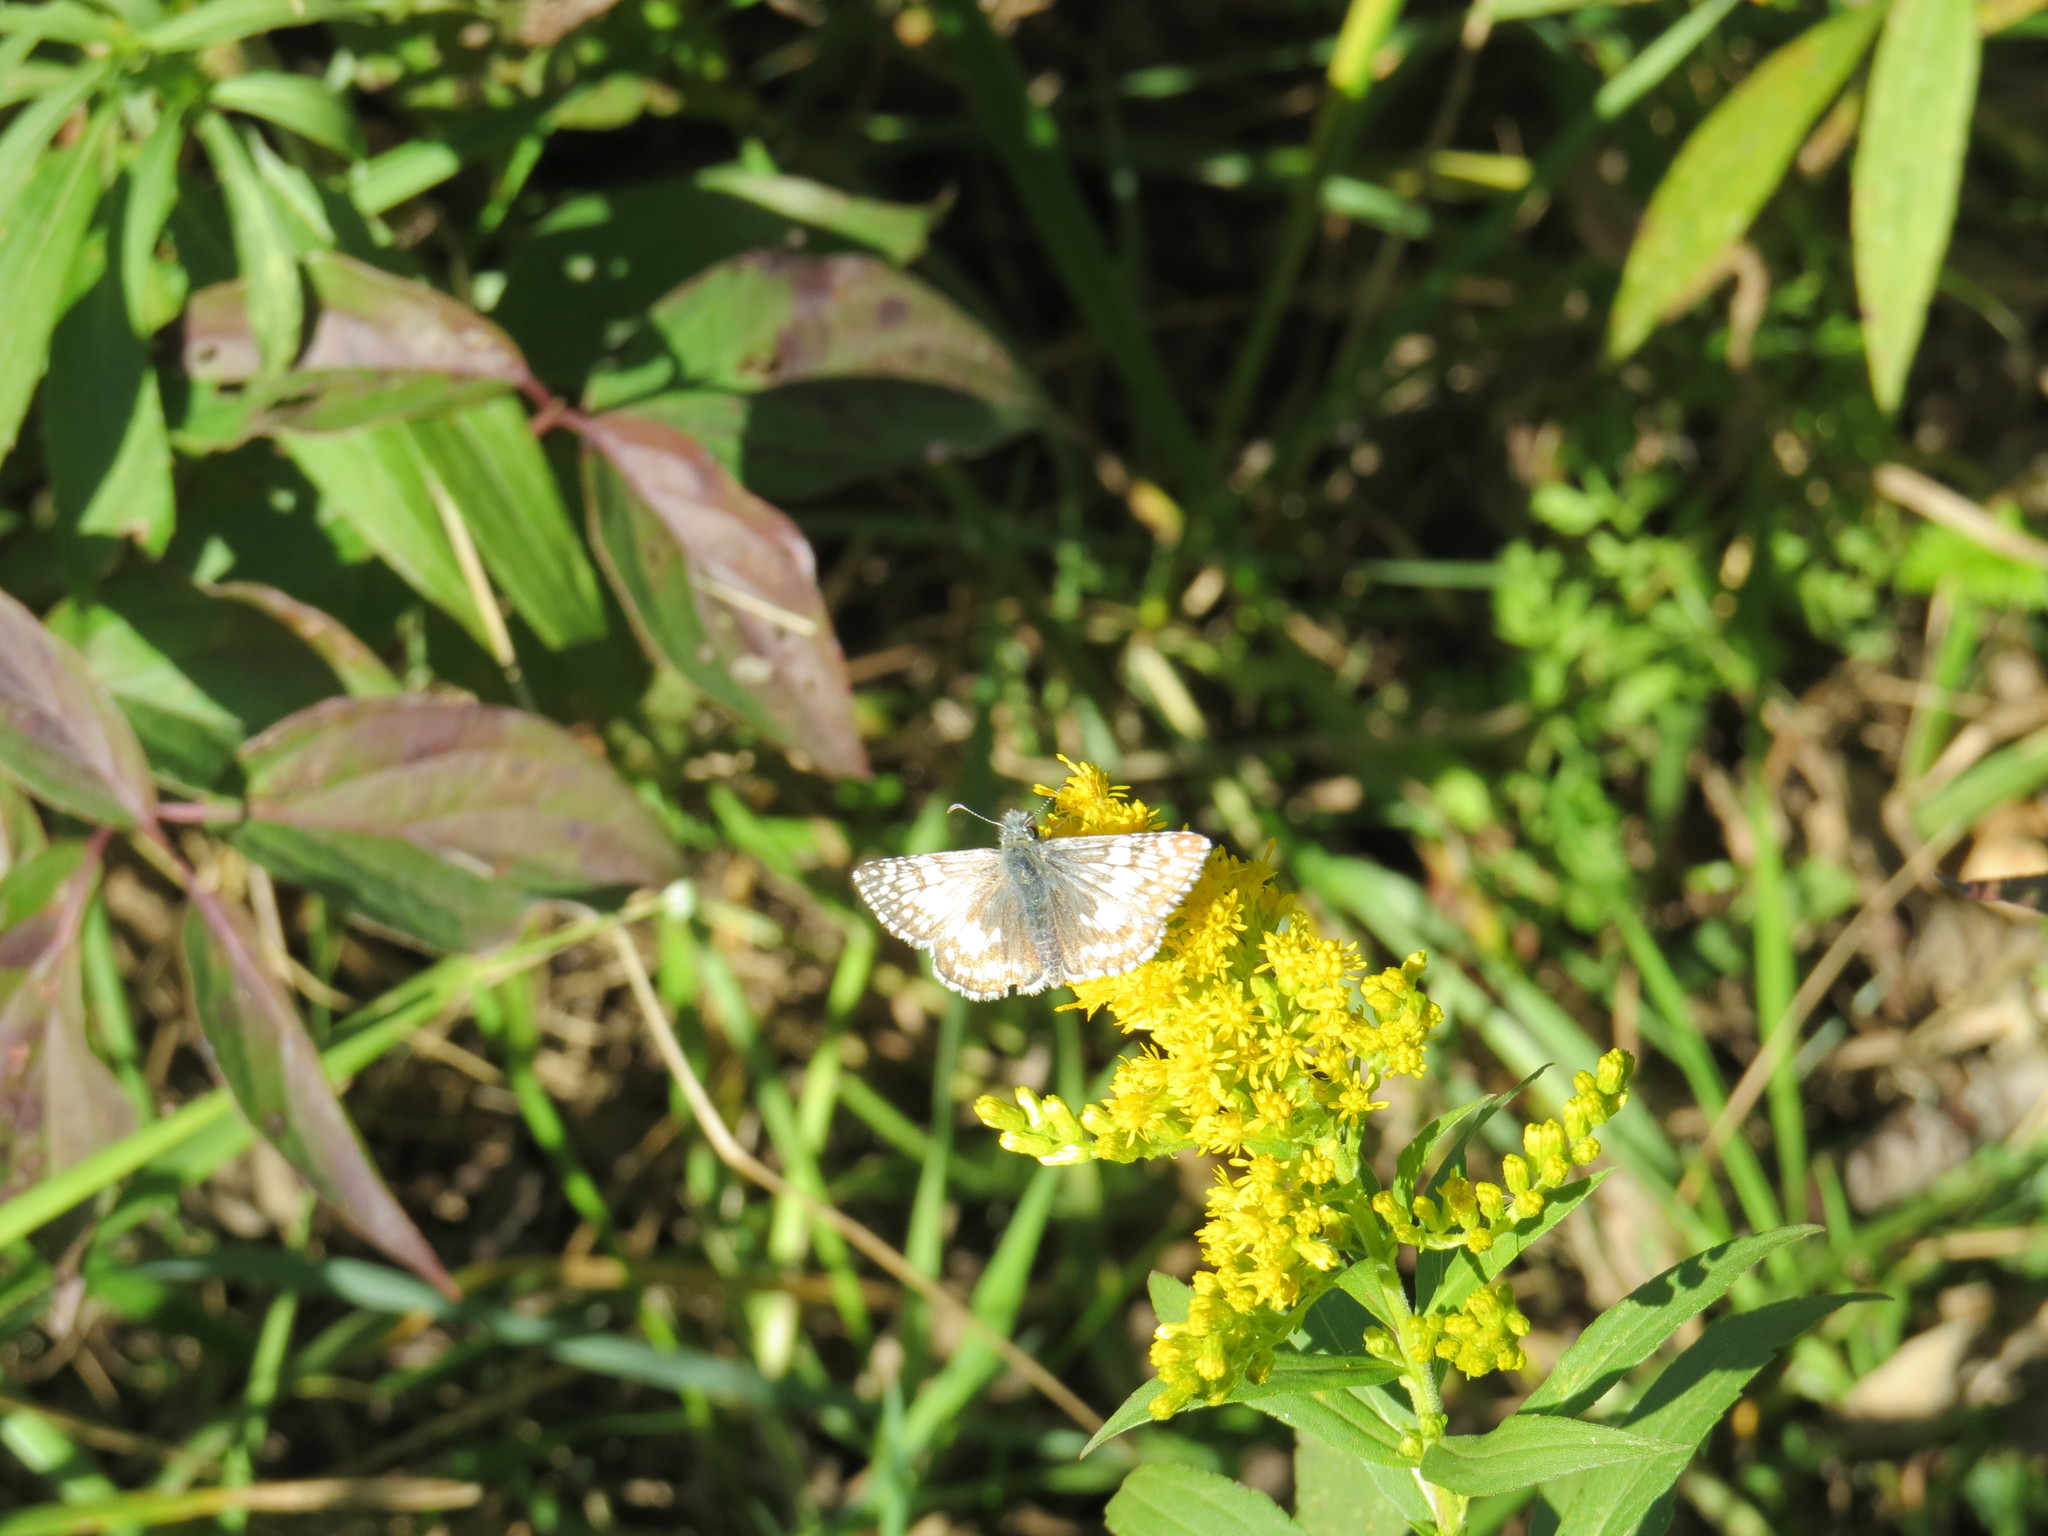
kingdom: Animalia
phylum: Arthropoda
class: Insecta
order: Lepidoptera
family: Hesperiidae
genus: Burnsius
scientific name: Burnsius communis
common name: Common checkered-skipper
